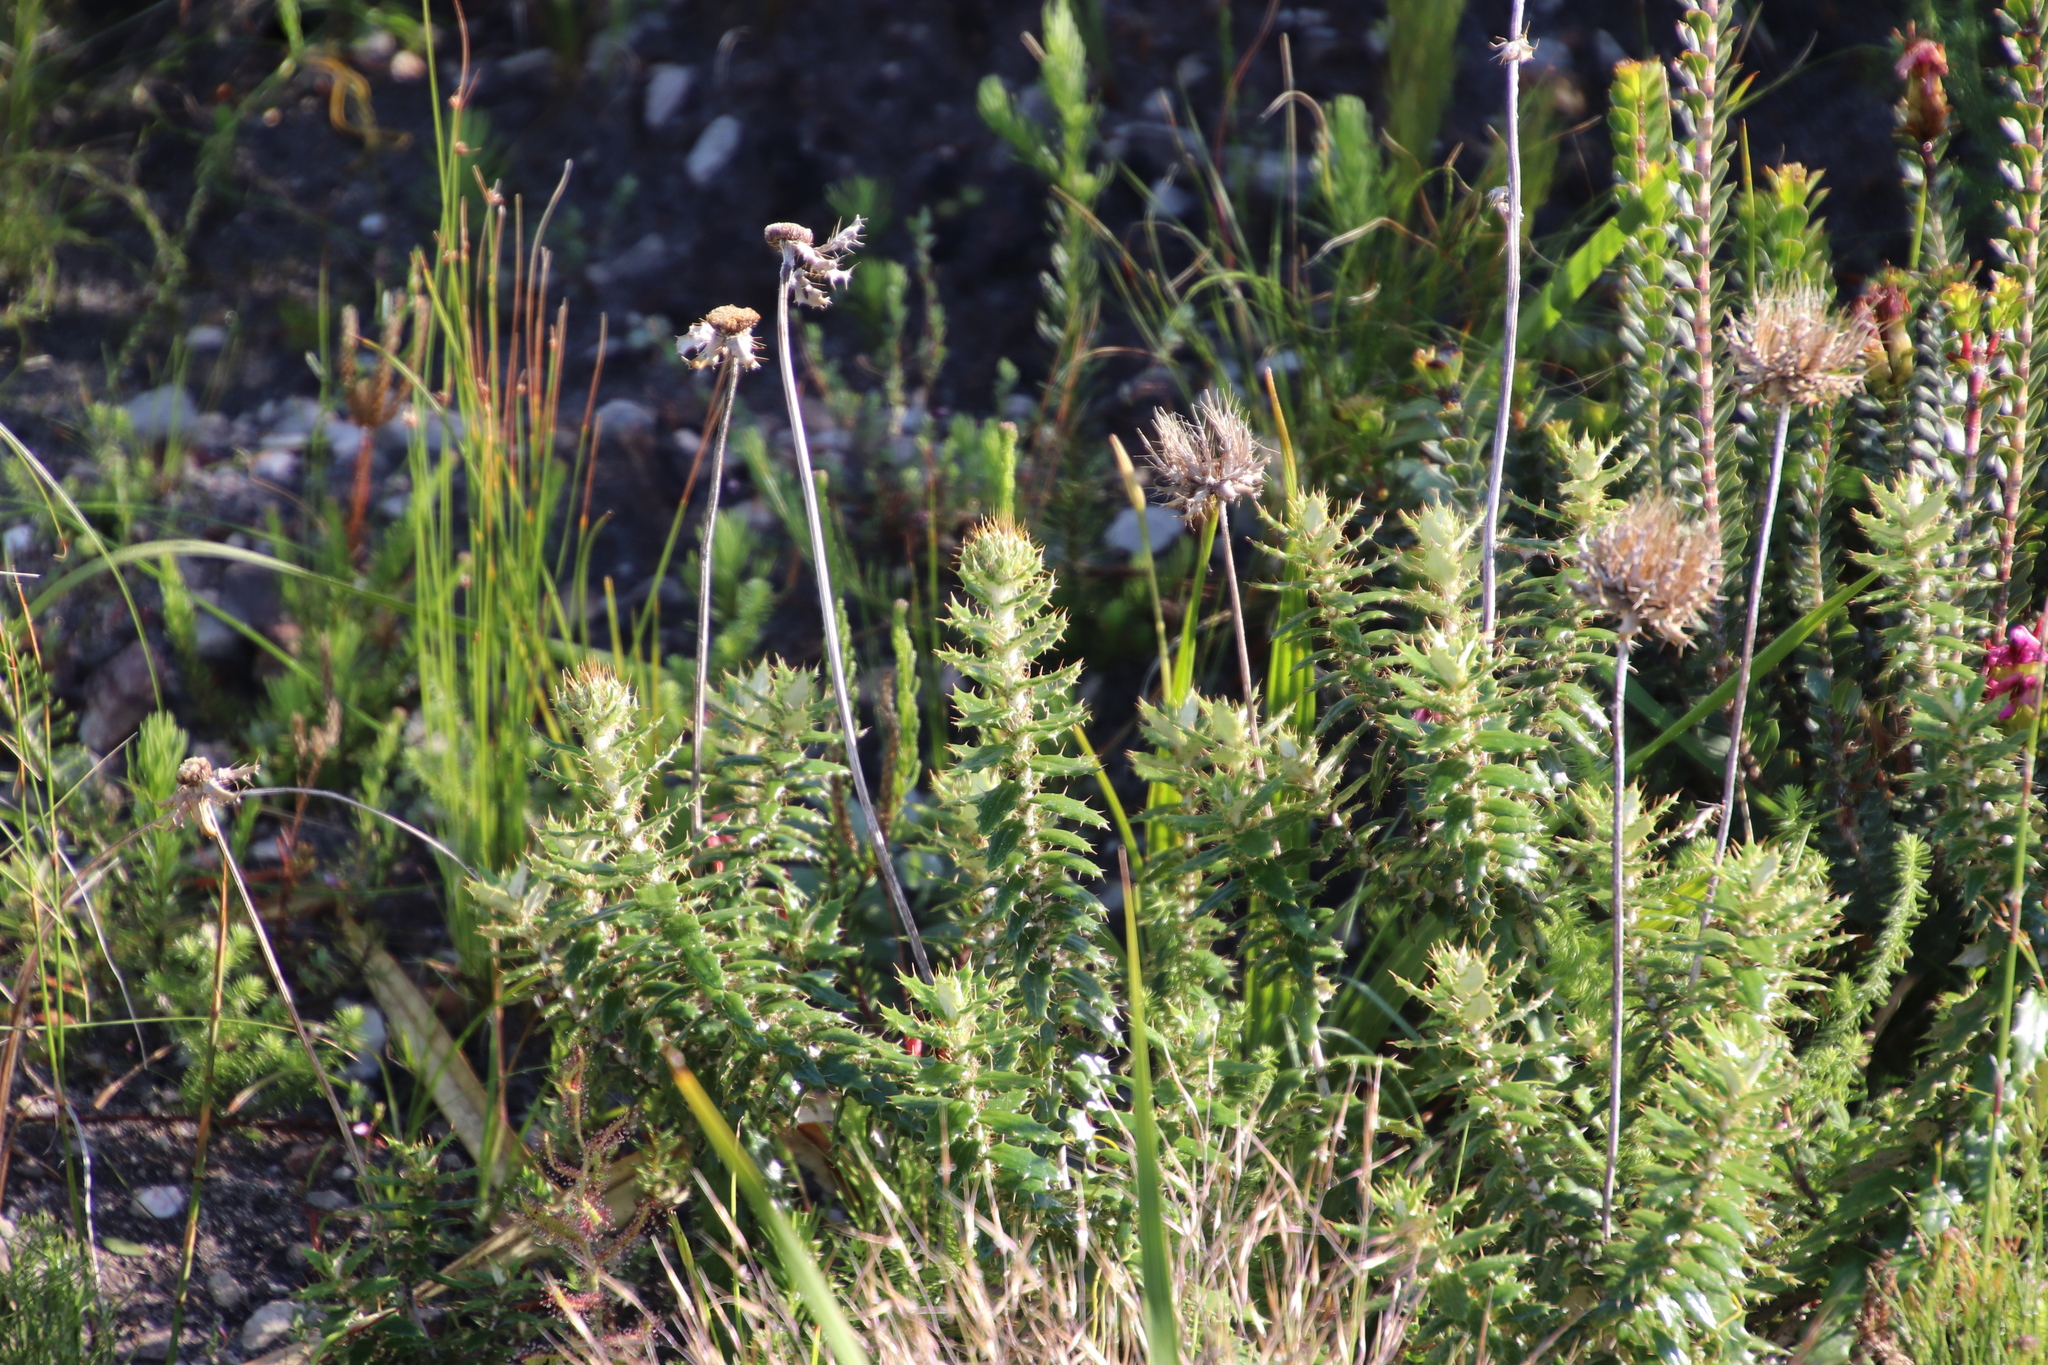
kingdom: Plantae
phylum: Tracheophyta
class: Magnoliopsida
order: Asterales
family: Asteraceae
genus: Berkheya
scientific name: Berkheya barbata
